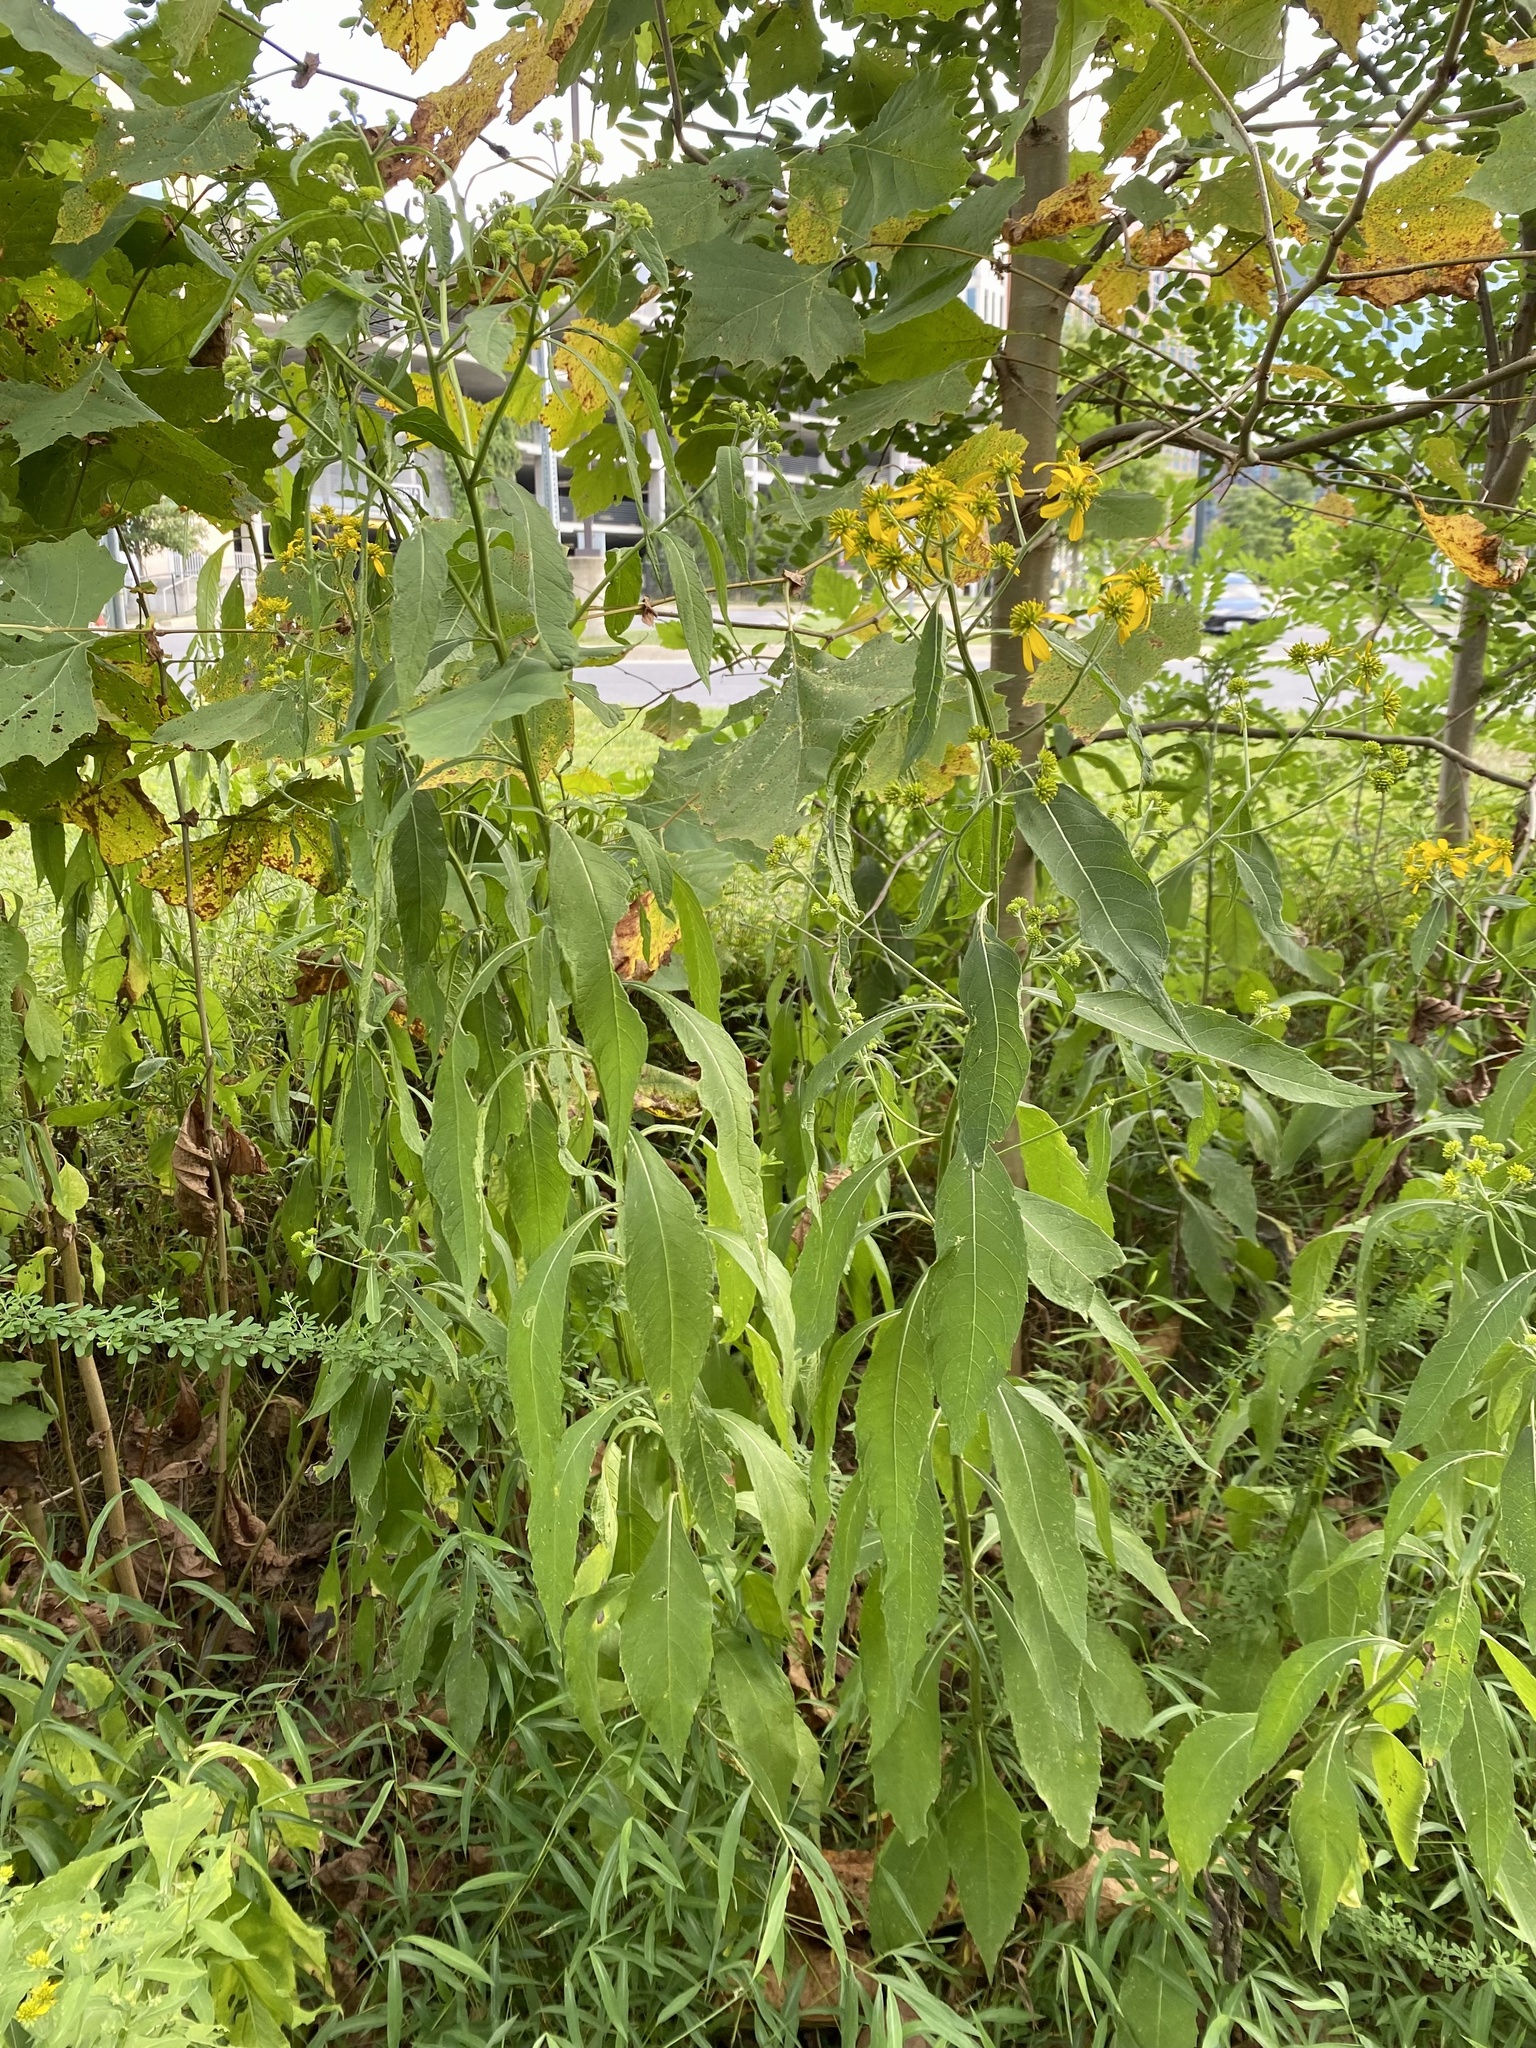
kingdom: Plantae
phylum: Tracheophyta
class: Magnoliopsida
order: Asterales
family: Asteraceae
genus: Verbesina
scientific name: Verbesina alternifolia
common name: Wingstem
